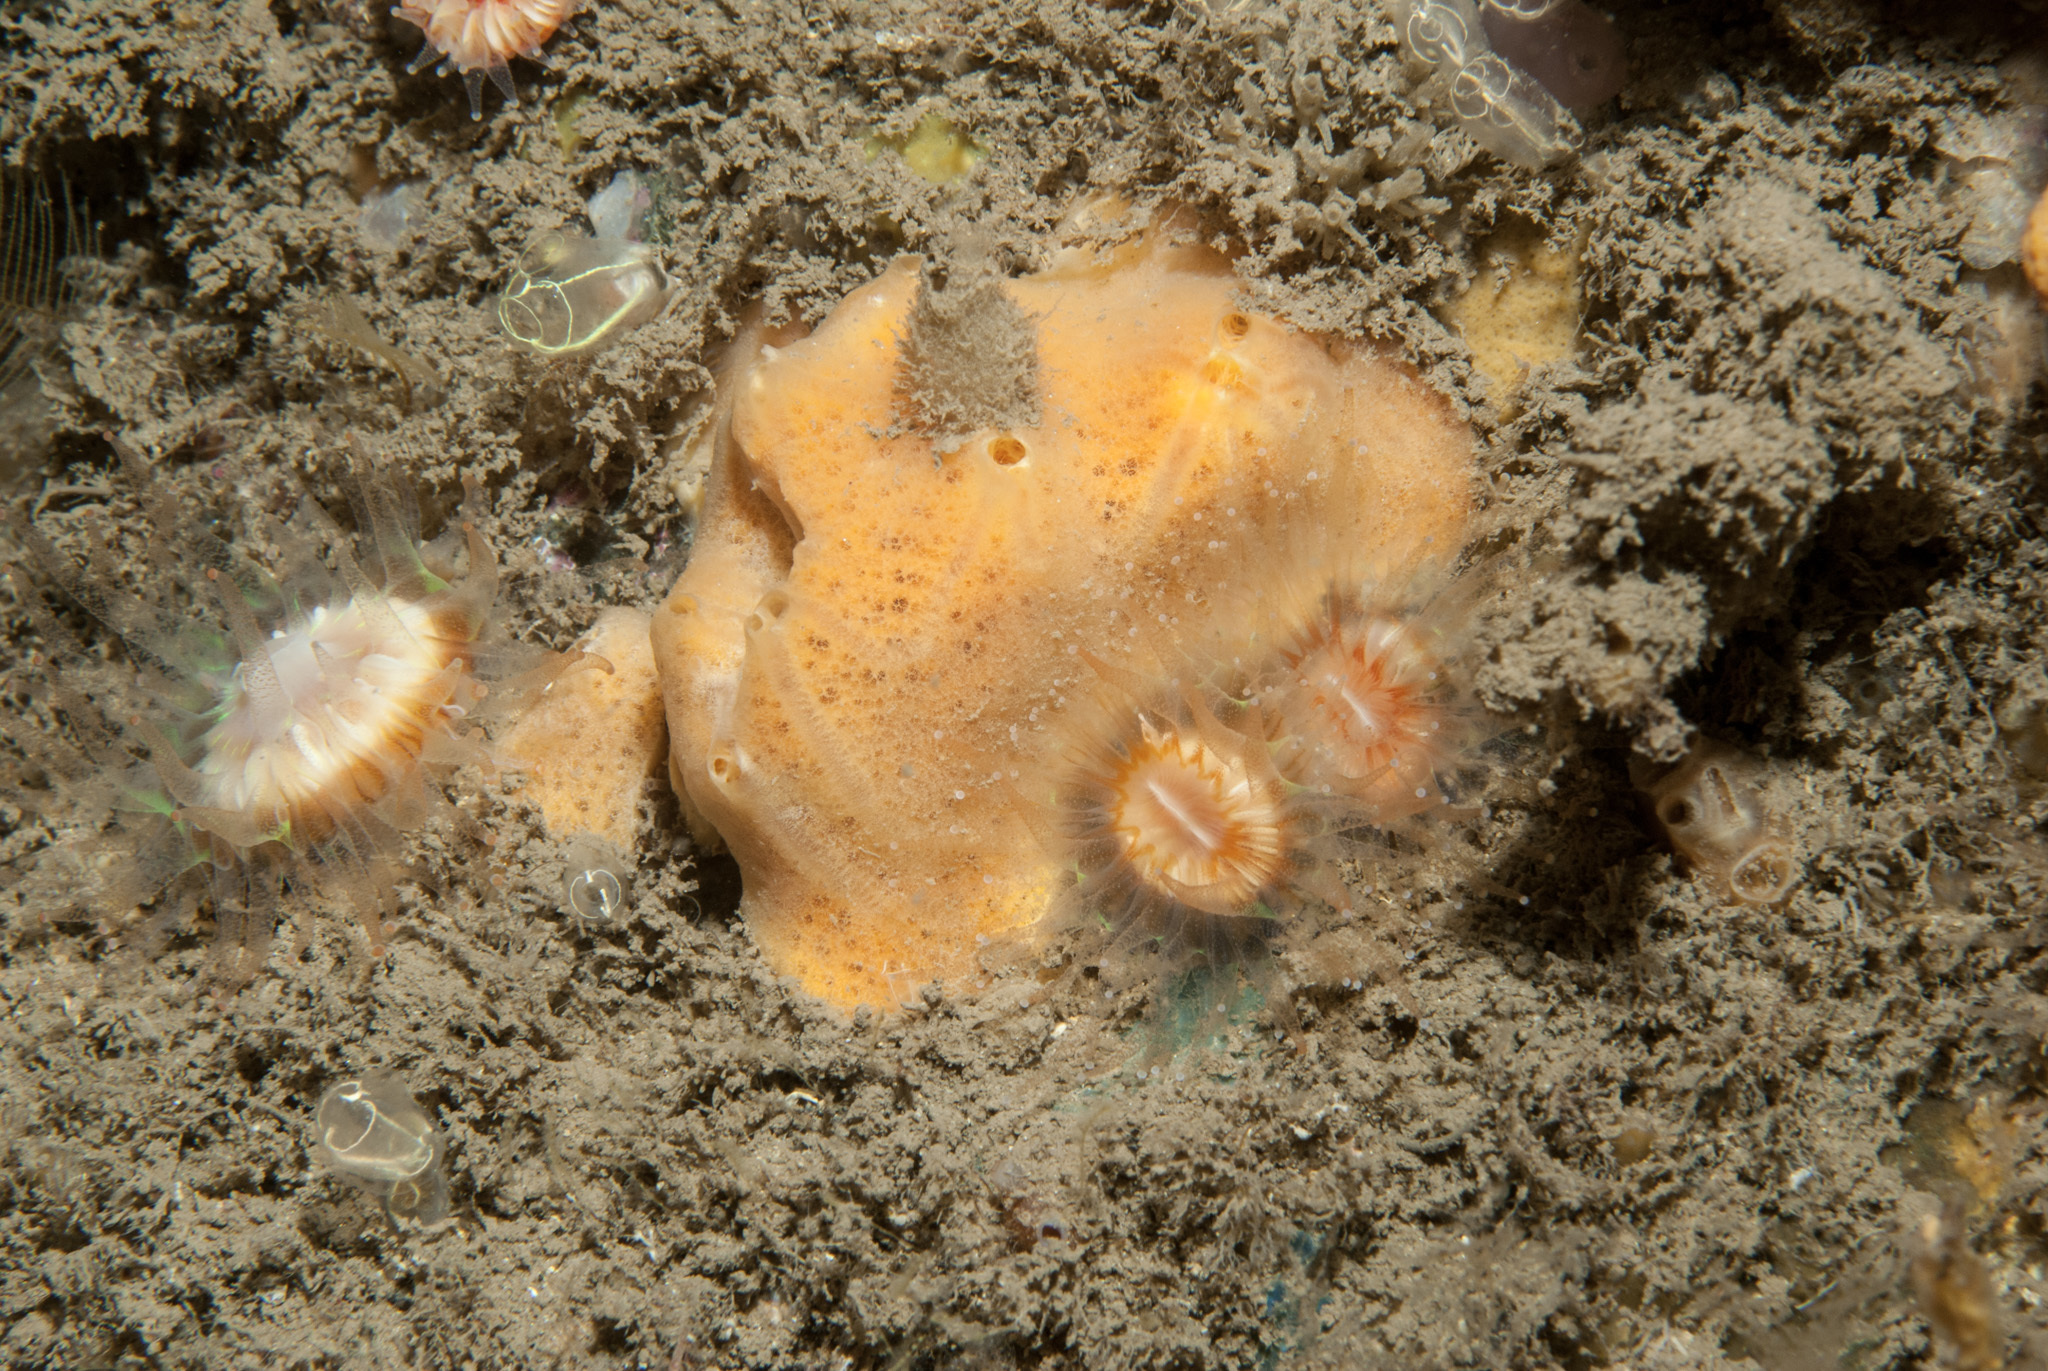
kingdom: Animalia
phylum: Porifera
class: Demospongiae
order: Poecilosclerida
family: Myxillidae
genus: Myxilla
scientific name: Myxilla fimbriata
